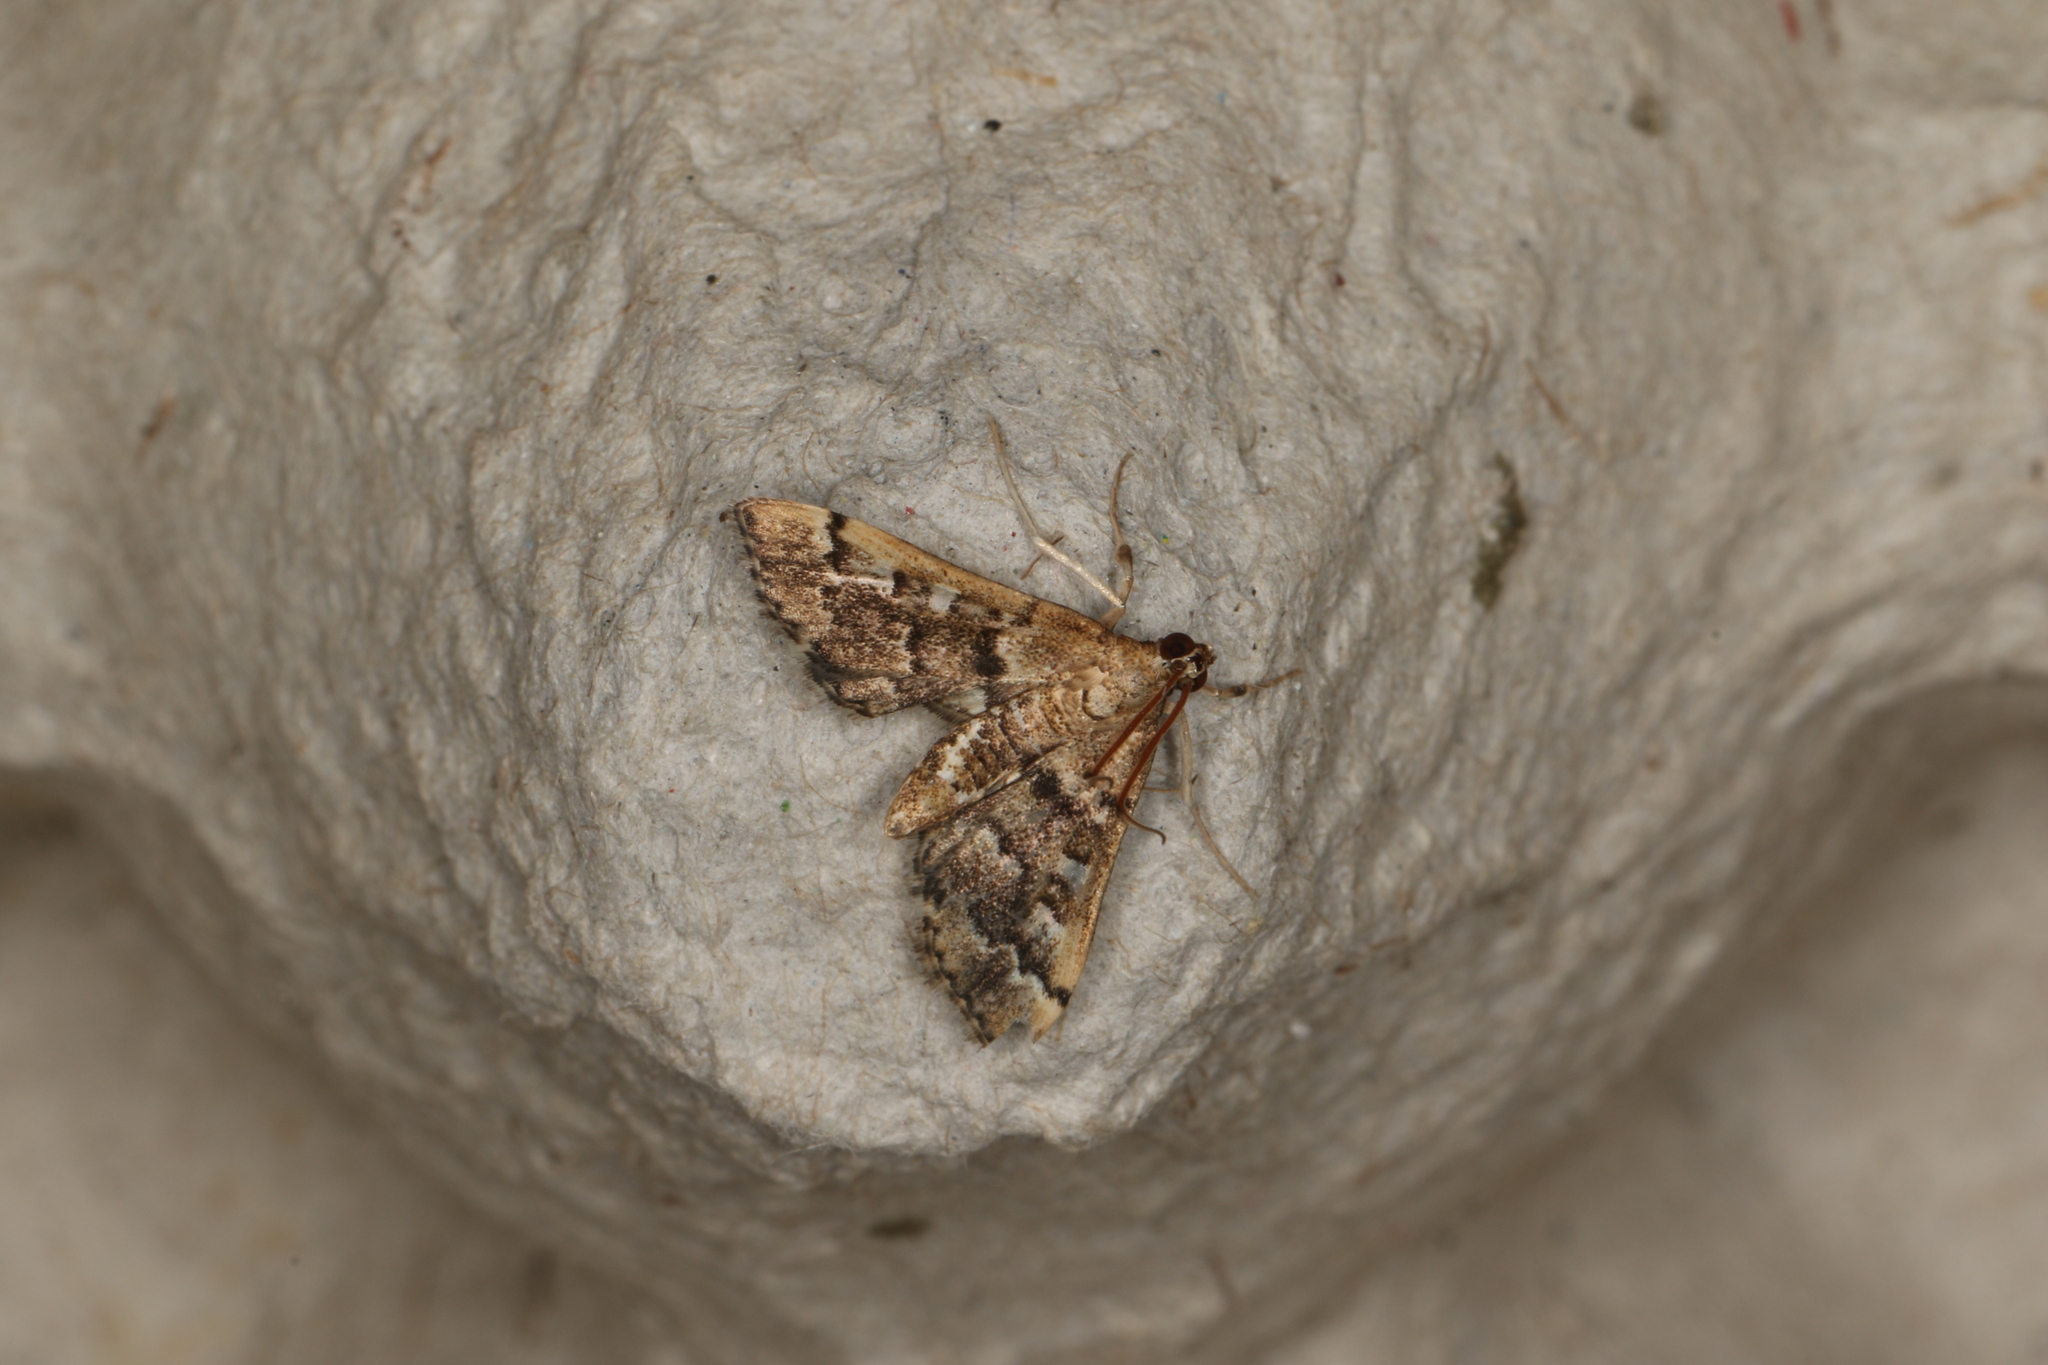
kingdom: Animalia
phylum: Arthropoda
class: Insecta
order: Lepidoptera
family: Crambidae
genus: Nacoleia
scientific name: Nacoleia rhoeoalis
